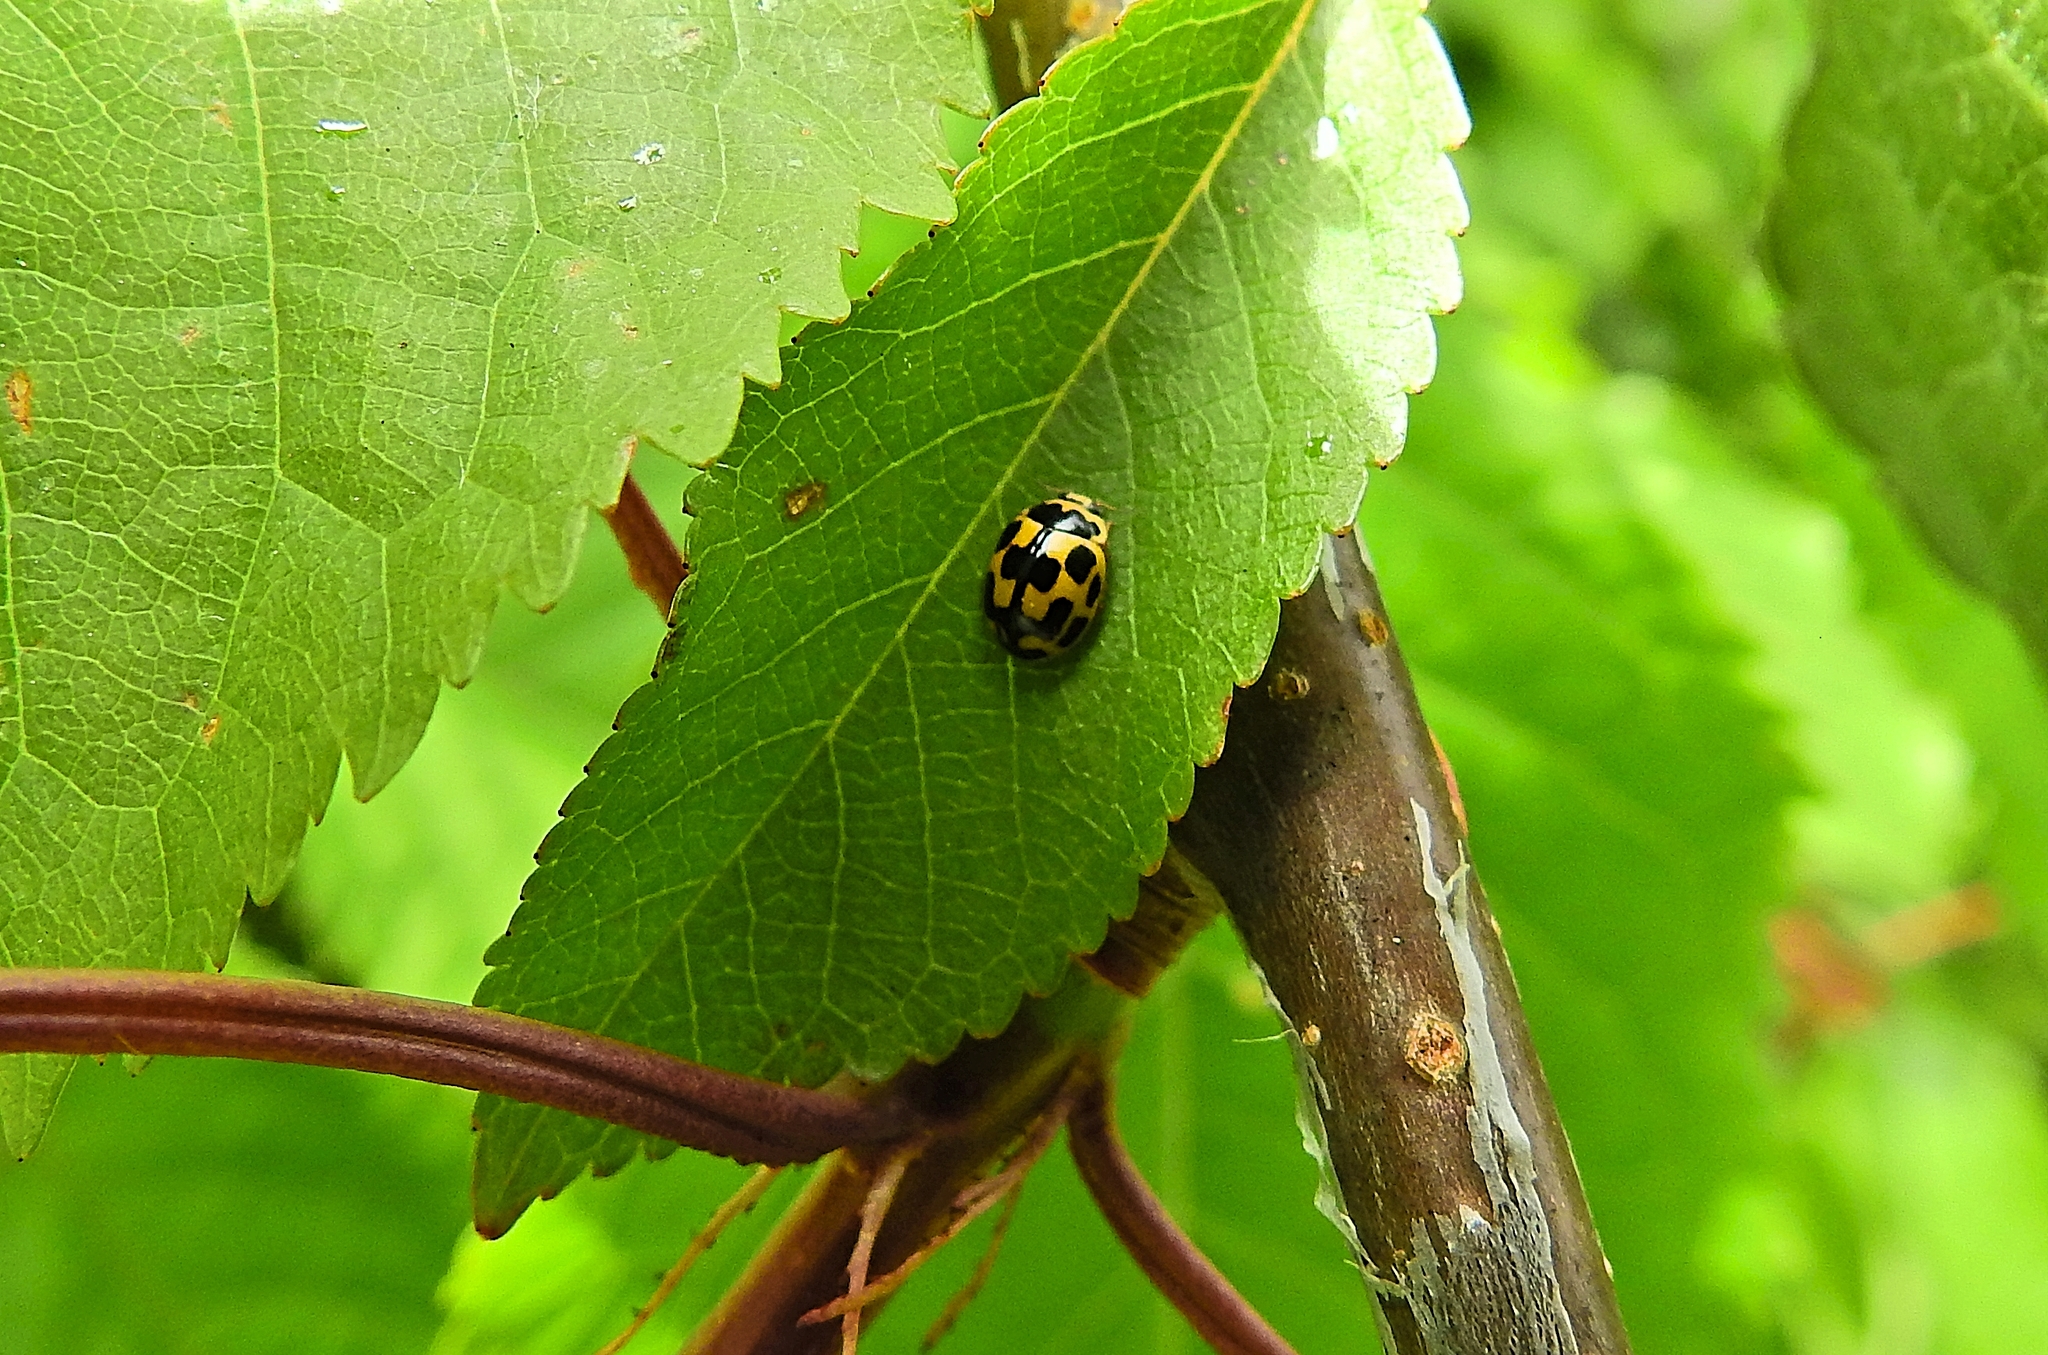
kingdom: Animalia
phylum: Arthropoda
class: Insecta
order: Coleoptera
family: Coccinellidae
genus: Propylaea
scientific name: Propylaea quatuordecimpunctata
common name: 14-spotted ladybird beetle
